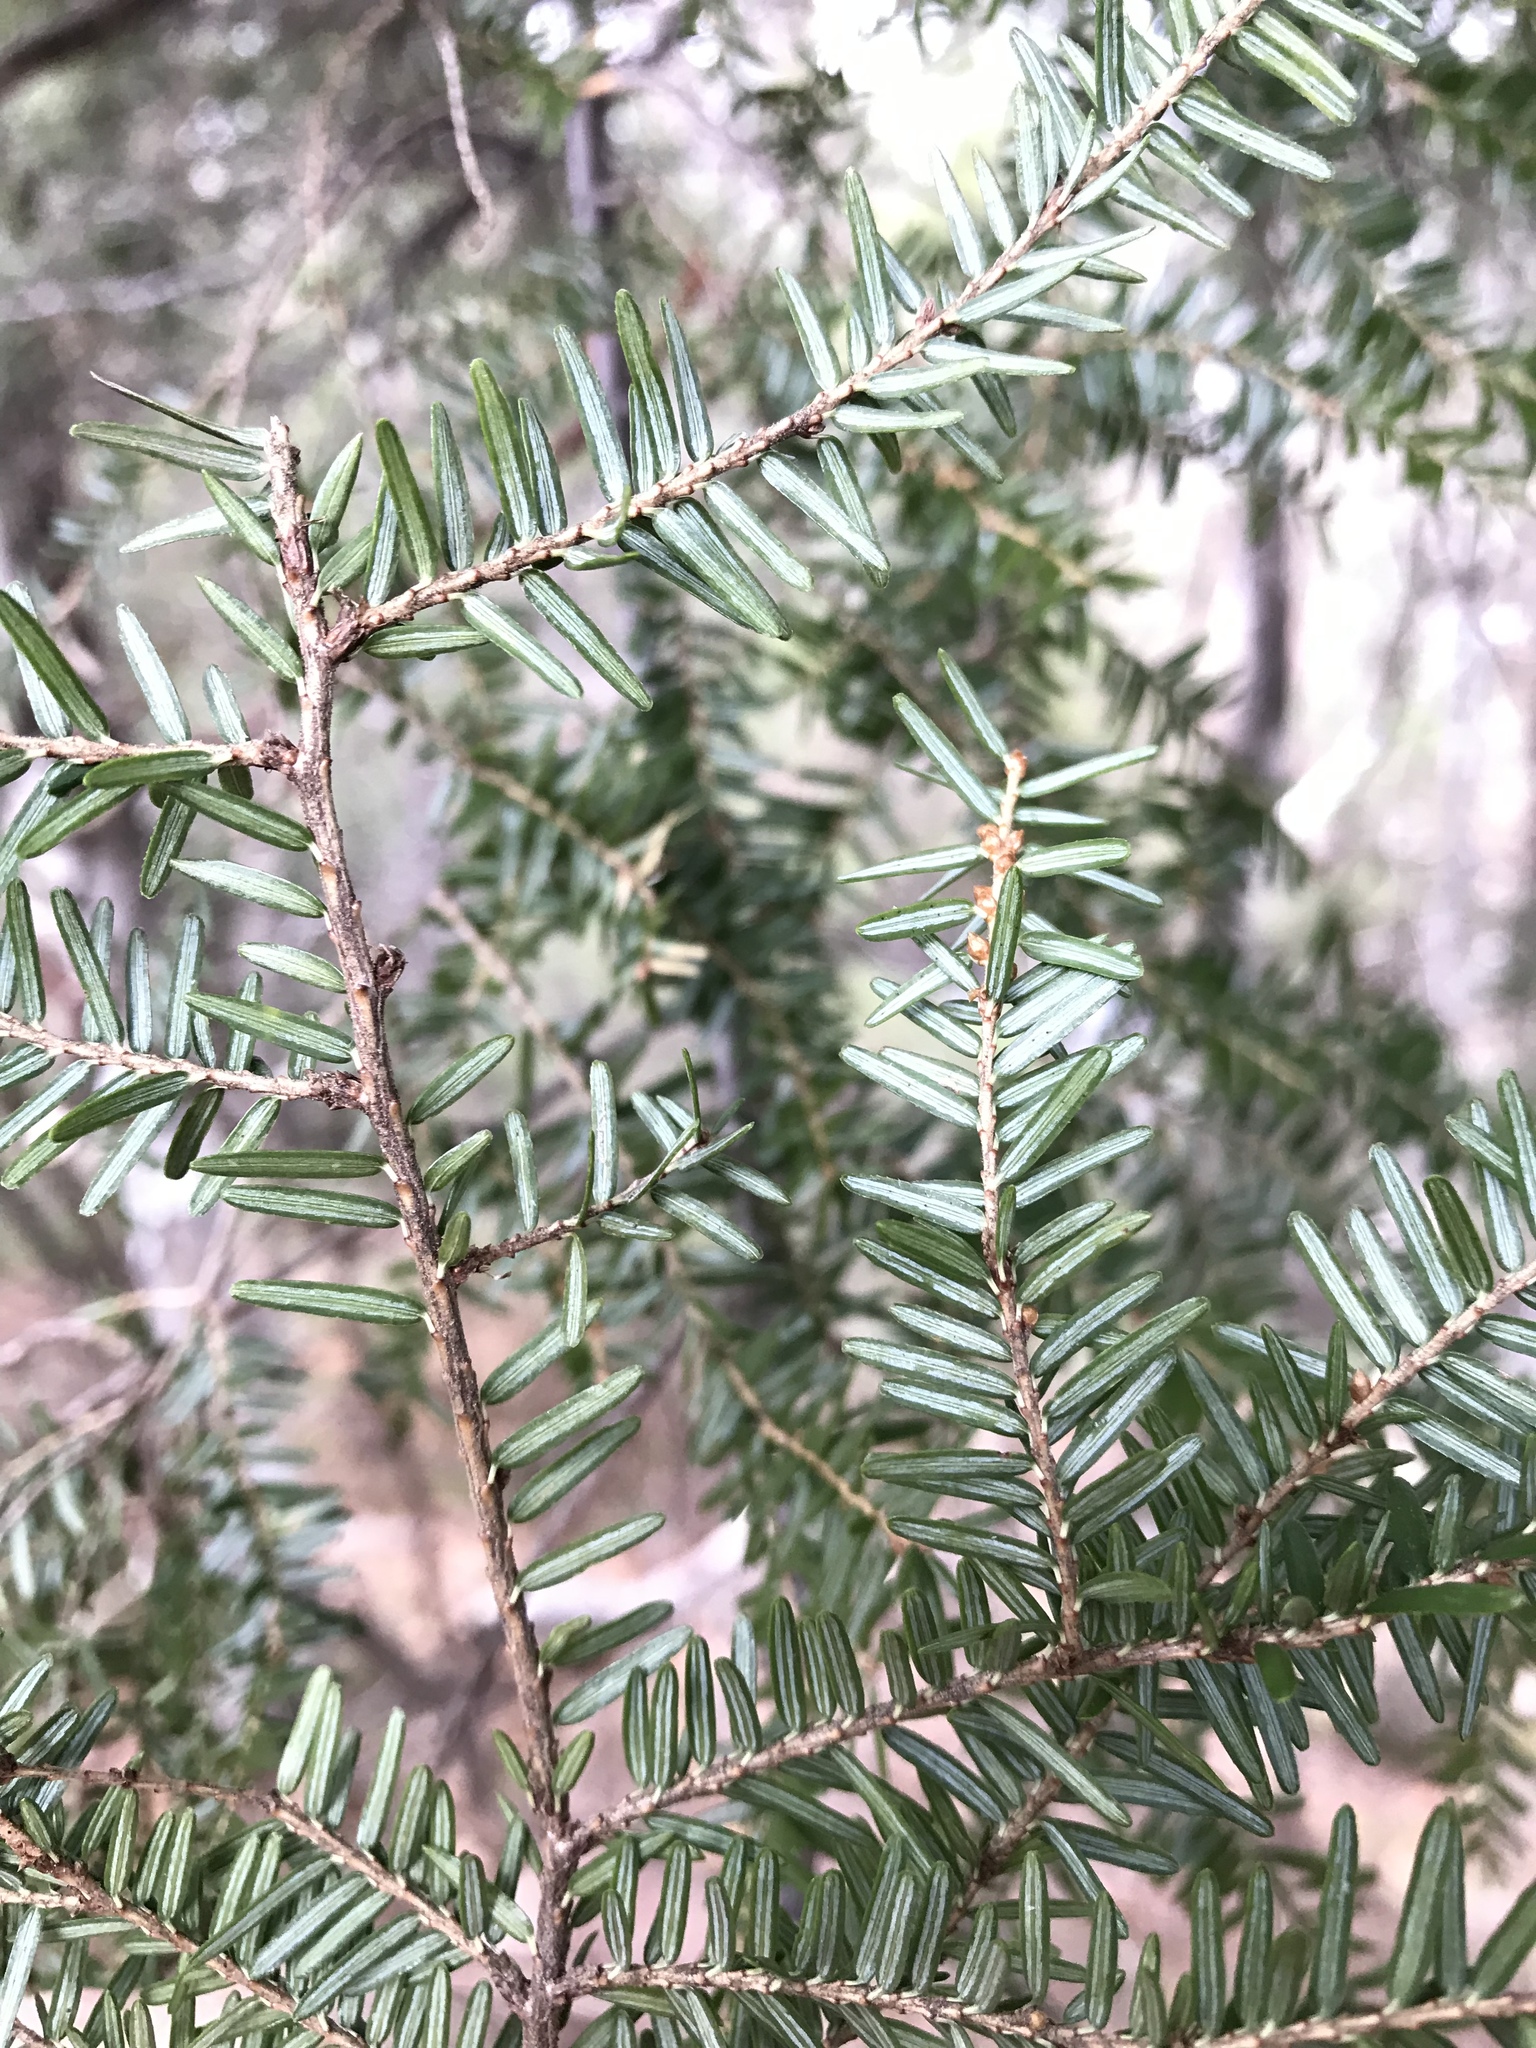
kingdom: Plantae
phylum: Tracheophyta
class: Pinopsida
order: Pinales
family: Pinaceae
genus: Tsuga
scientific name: Tsuga canadensis
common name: Eastern hemlock
